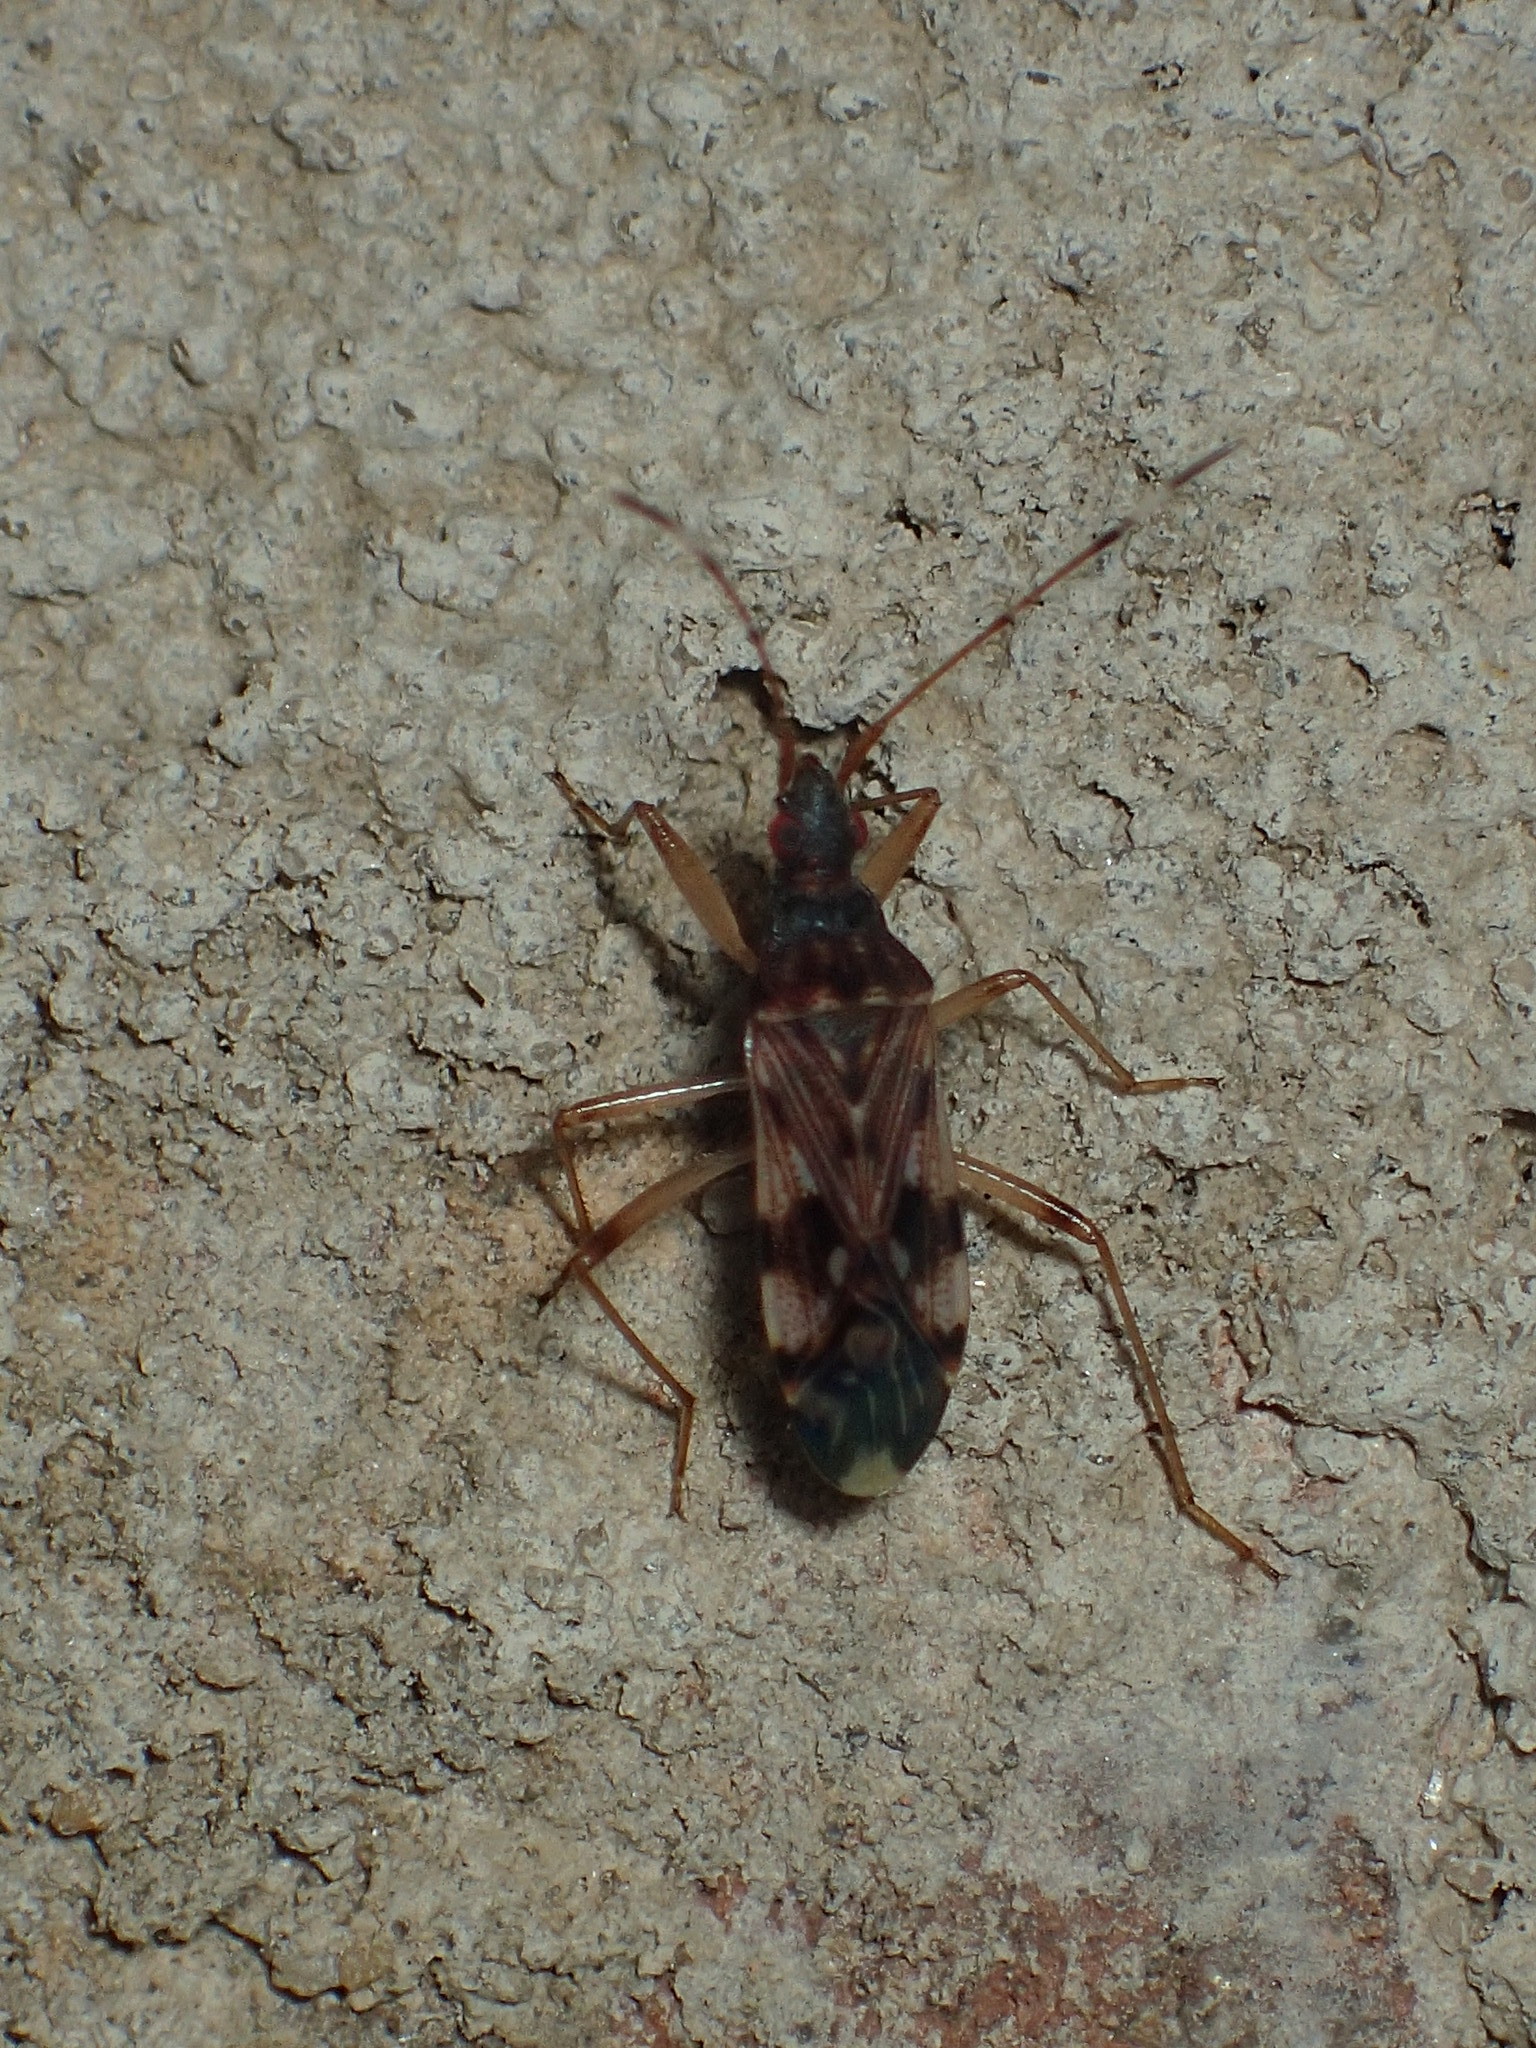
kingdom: Animalia
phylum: Arthropoda
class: Insecta
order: Hemiptera
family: Rhyparochromidae
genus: Ozophora
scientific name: Ozophora picturata
